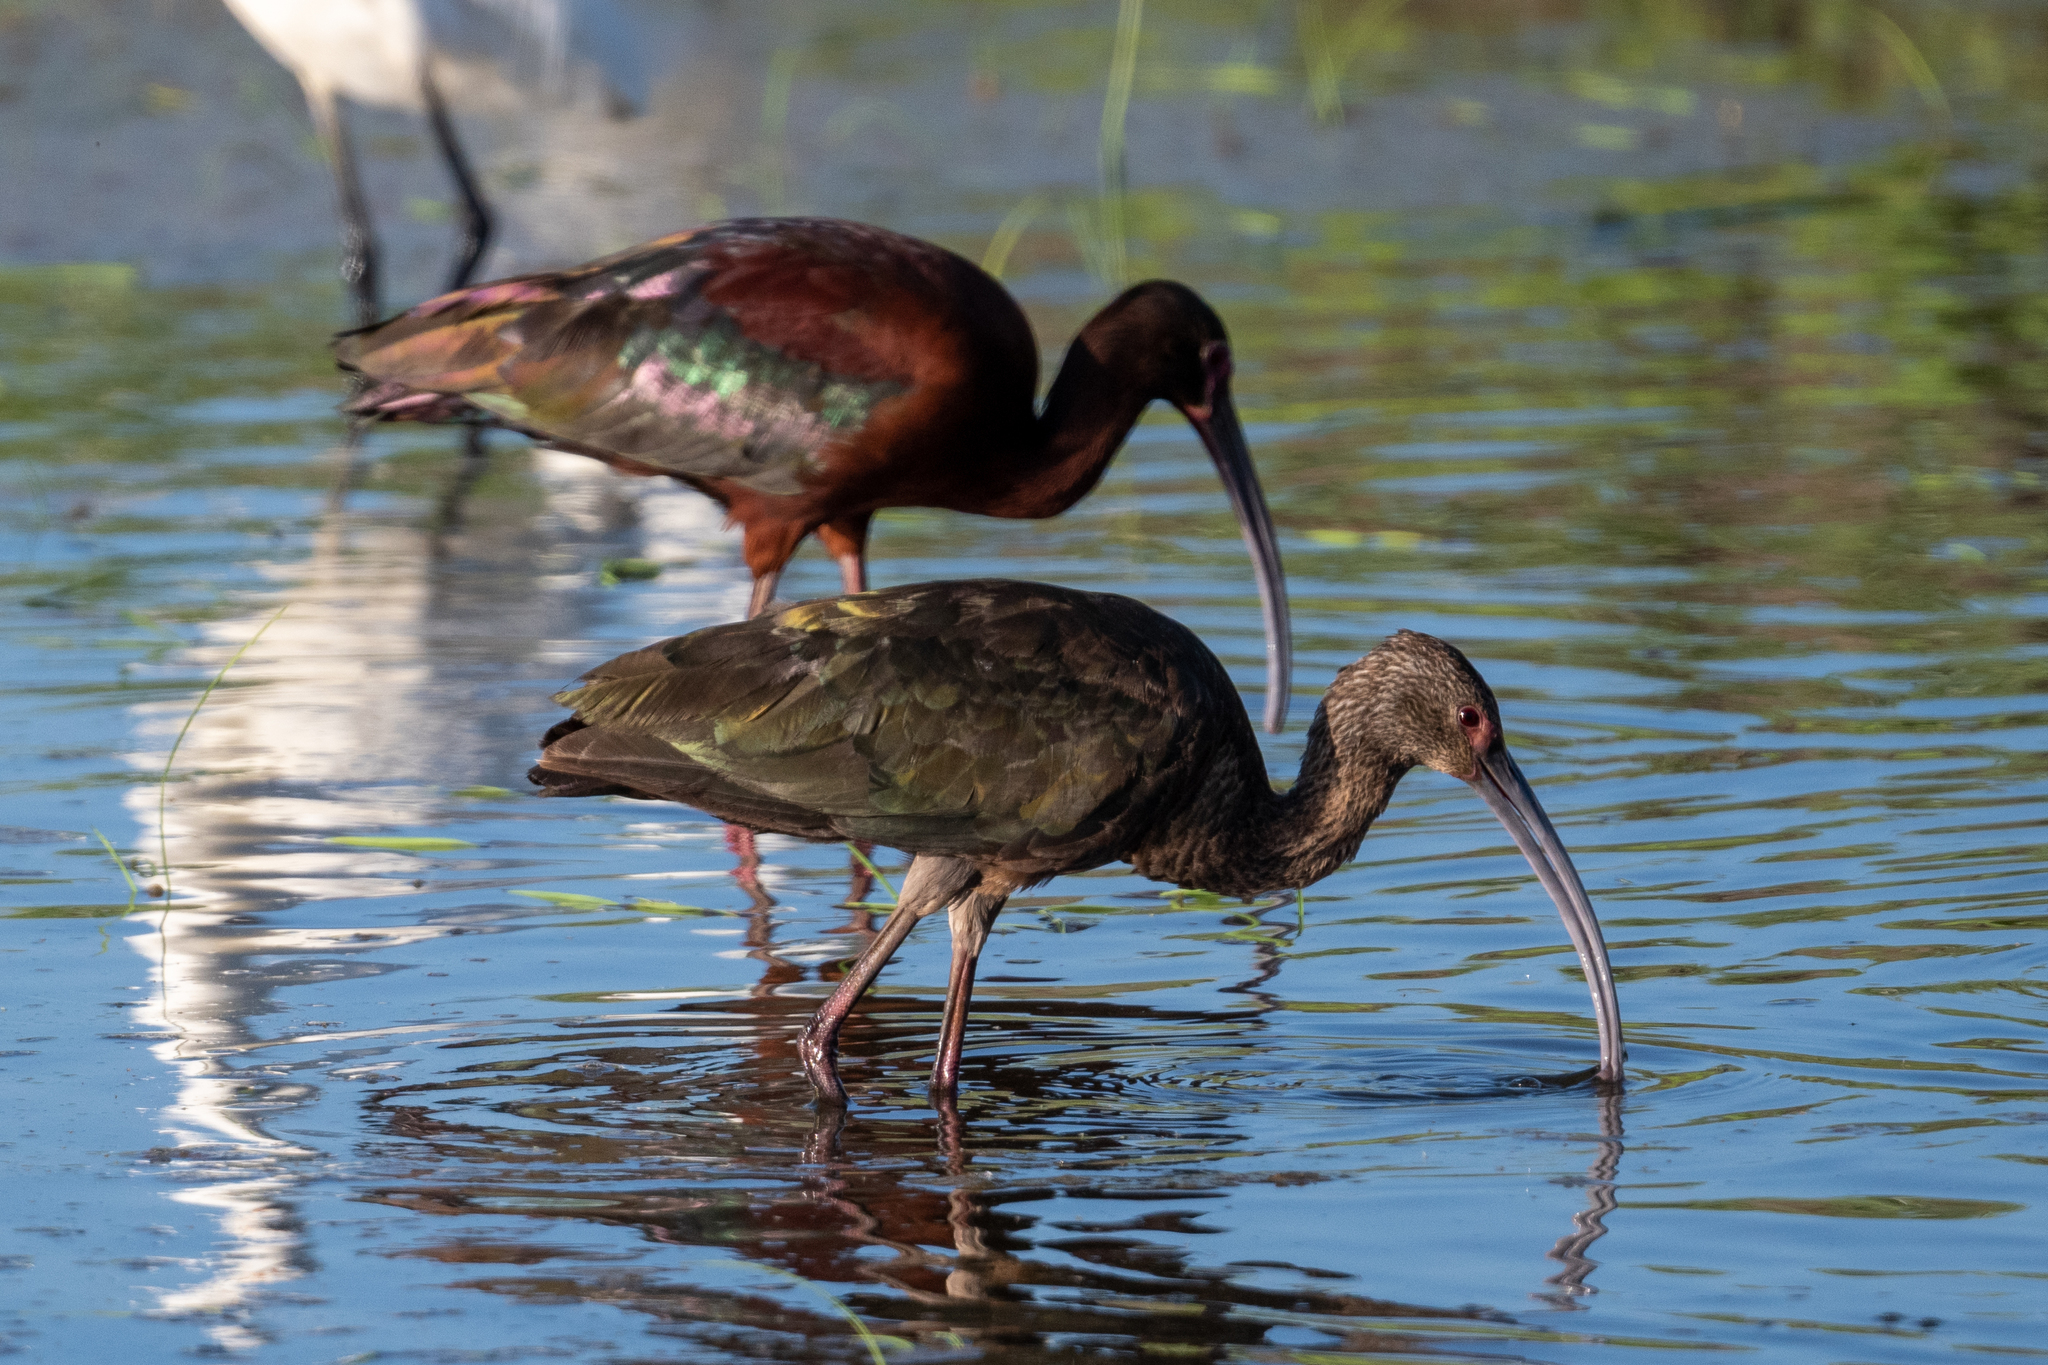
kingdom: Animalia
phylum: Chordata
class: Aves
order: Pelecaniformes
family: Threskiornithidae
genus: Plegadis
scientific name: Plegadis chihi
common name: White-faced ibis
